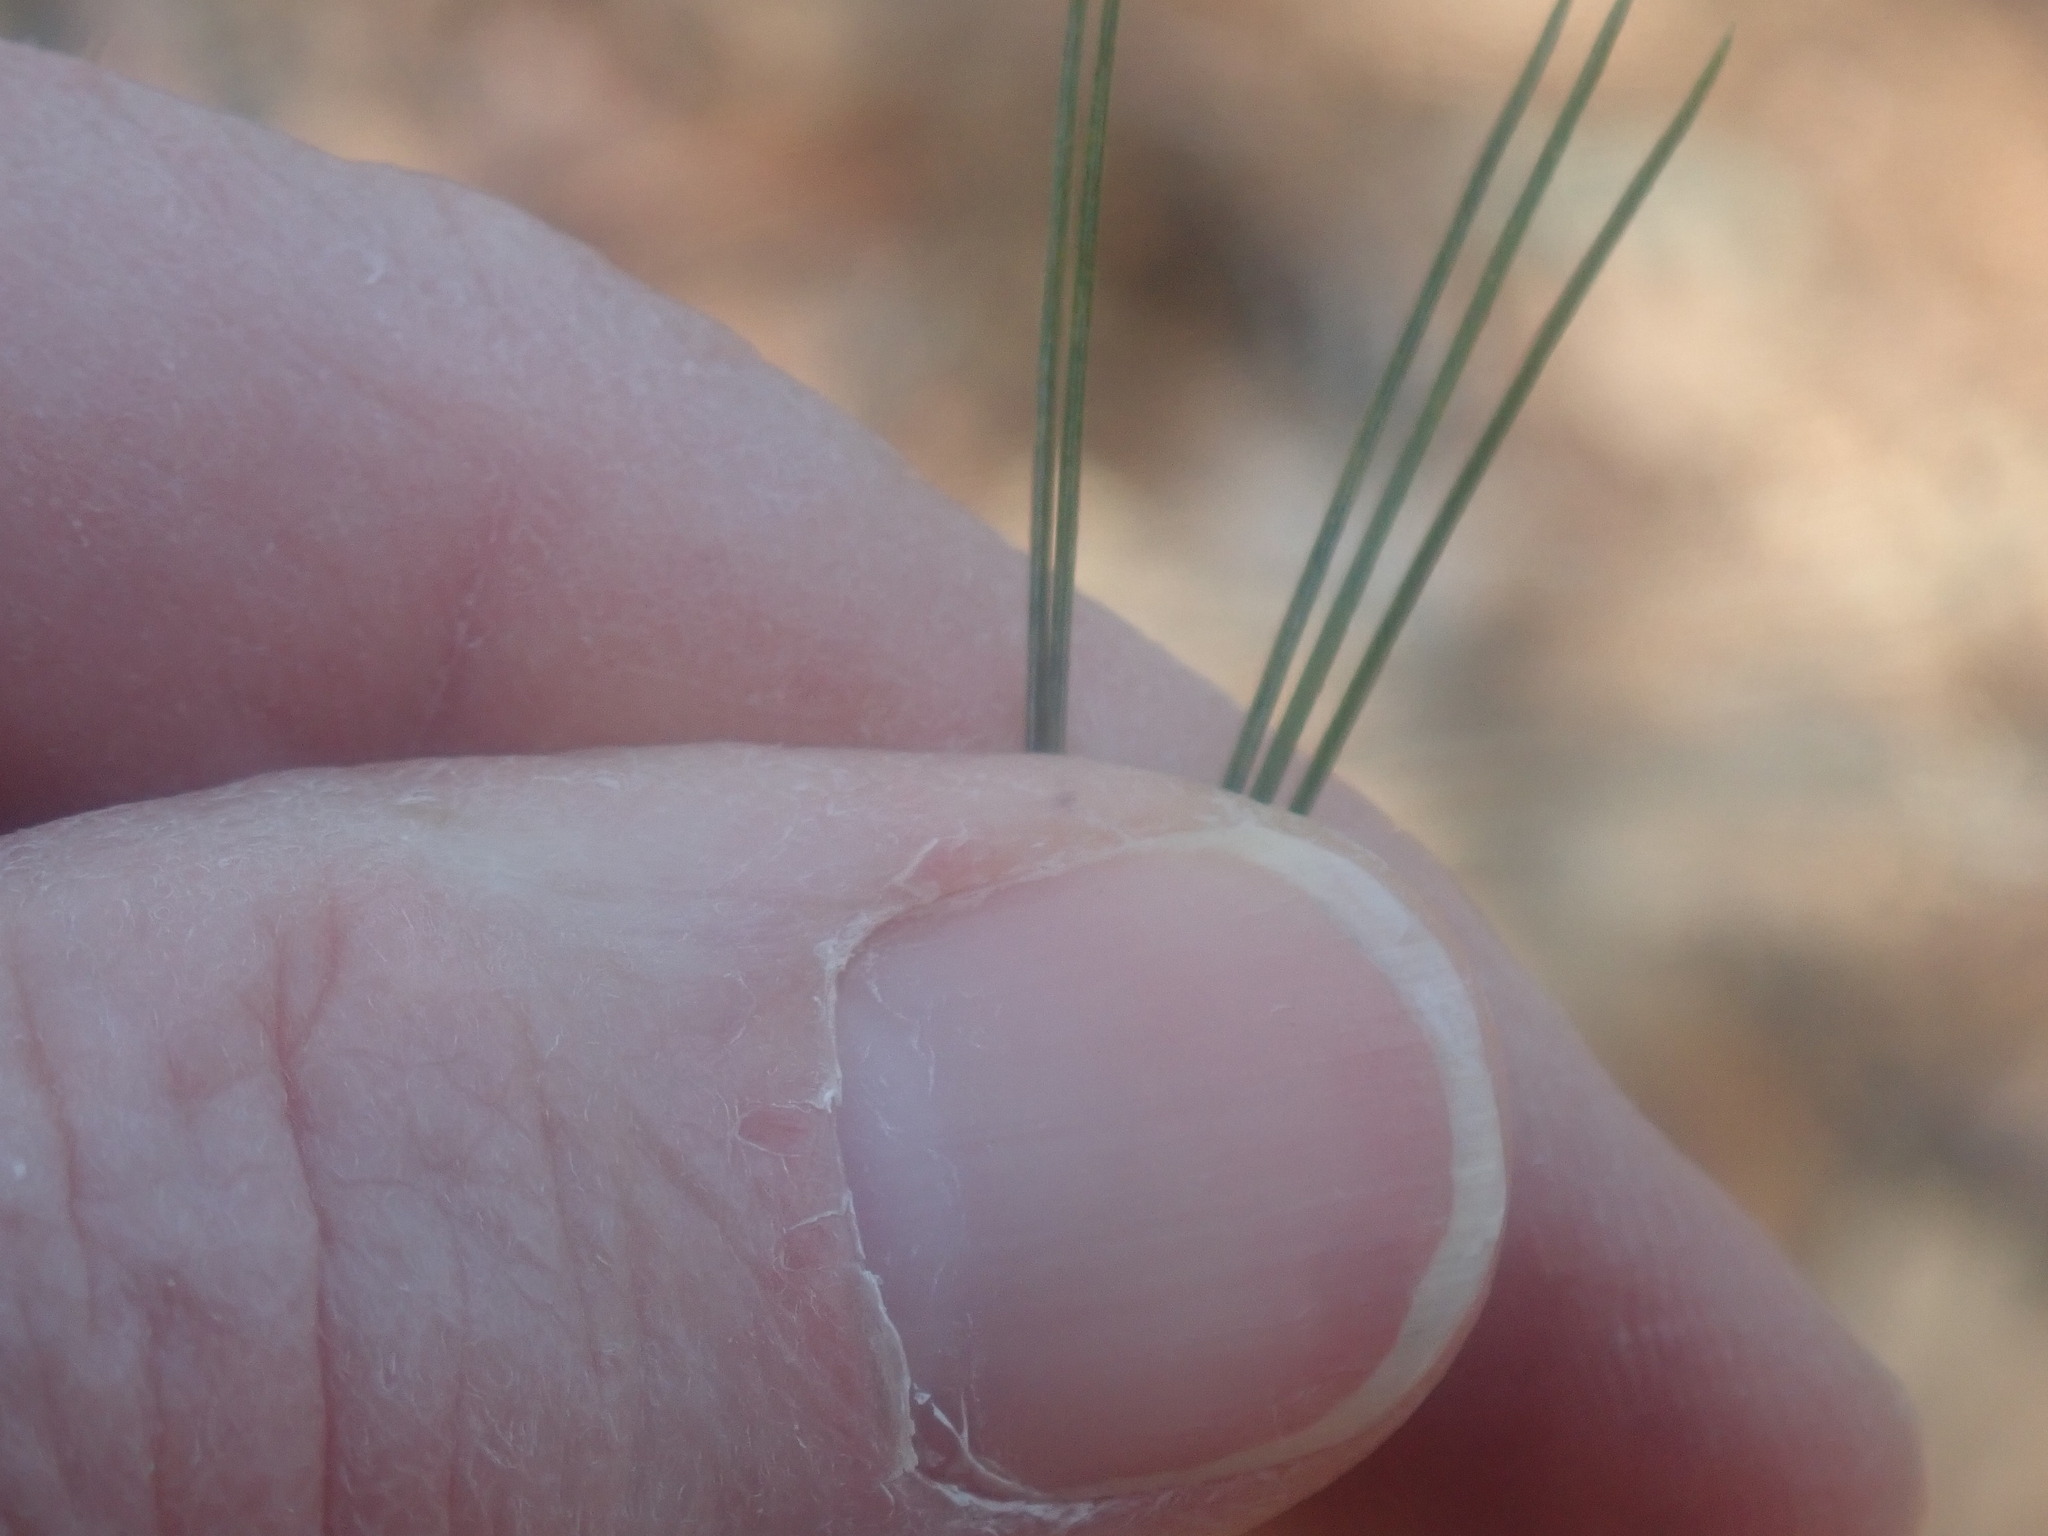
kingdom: Plantae
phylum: Tracheophyta
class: Pinopsida
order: Pinales
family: Pinaceae
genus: Pinus
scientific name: Pinus strobus
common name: Weymouth pine
